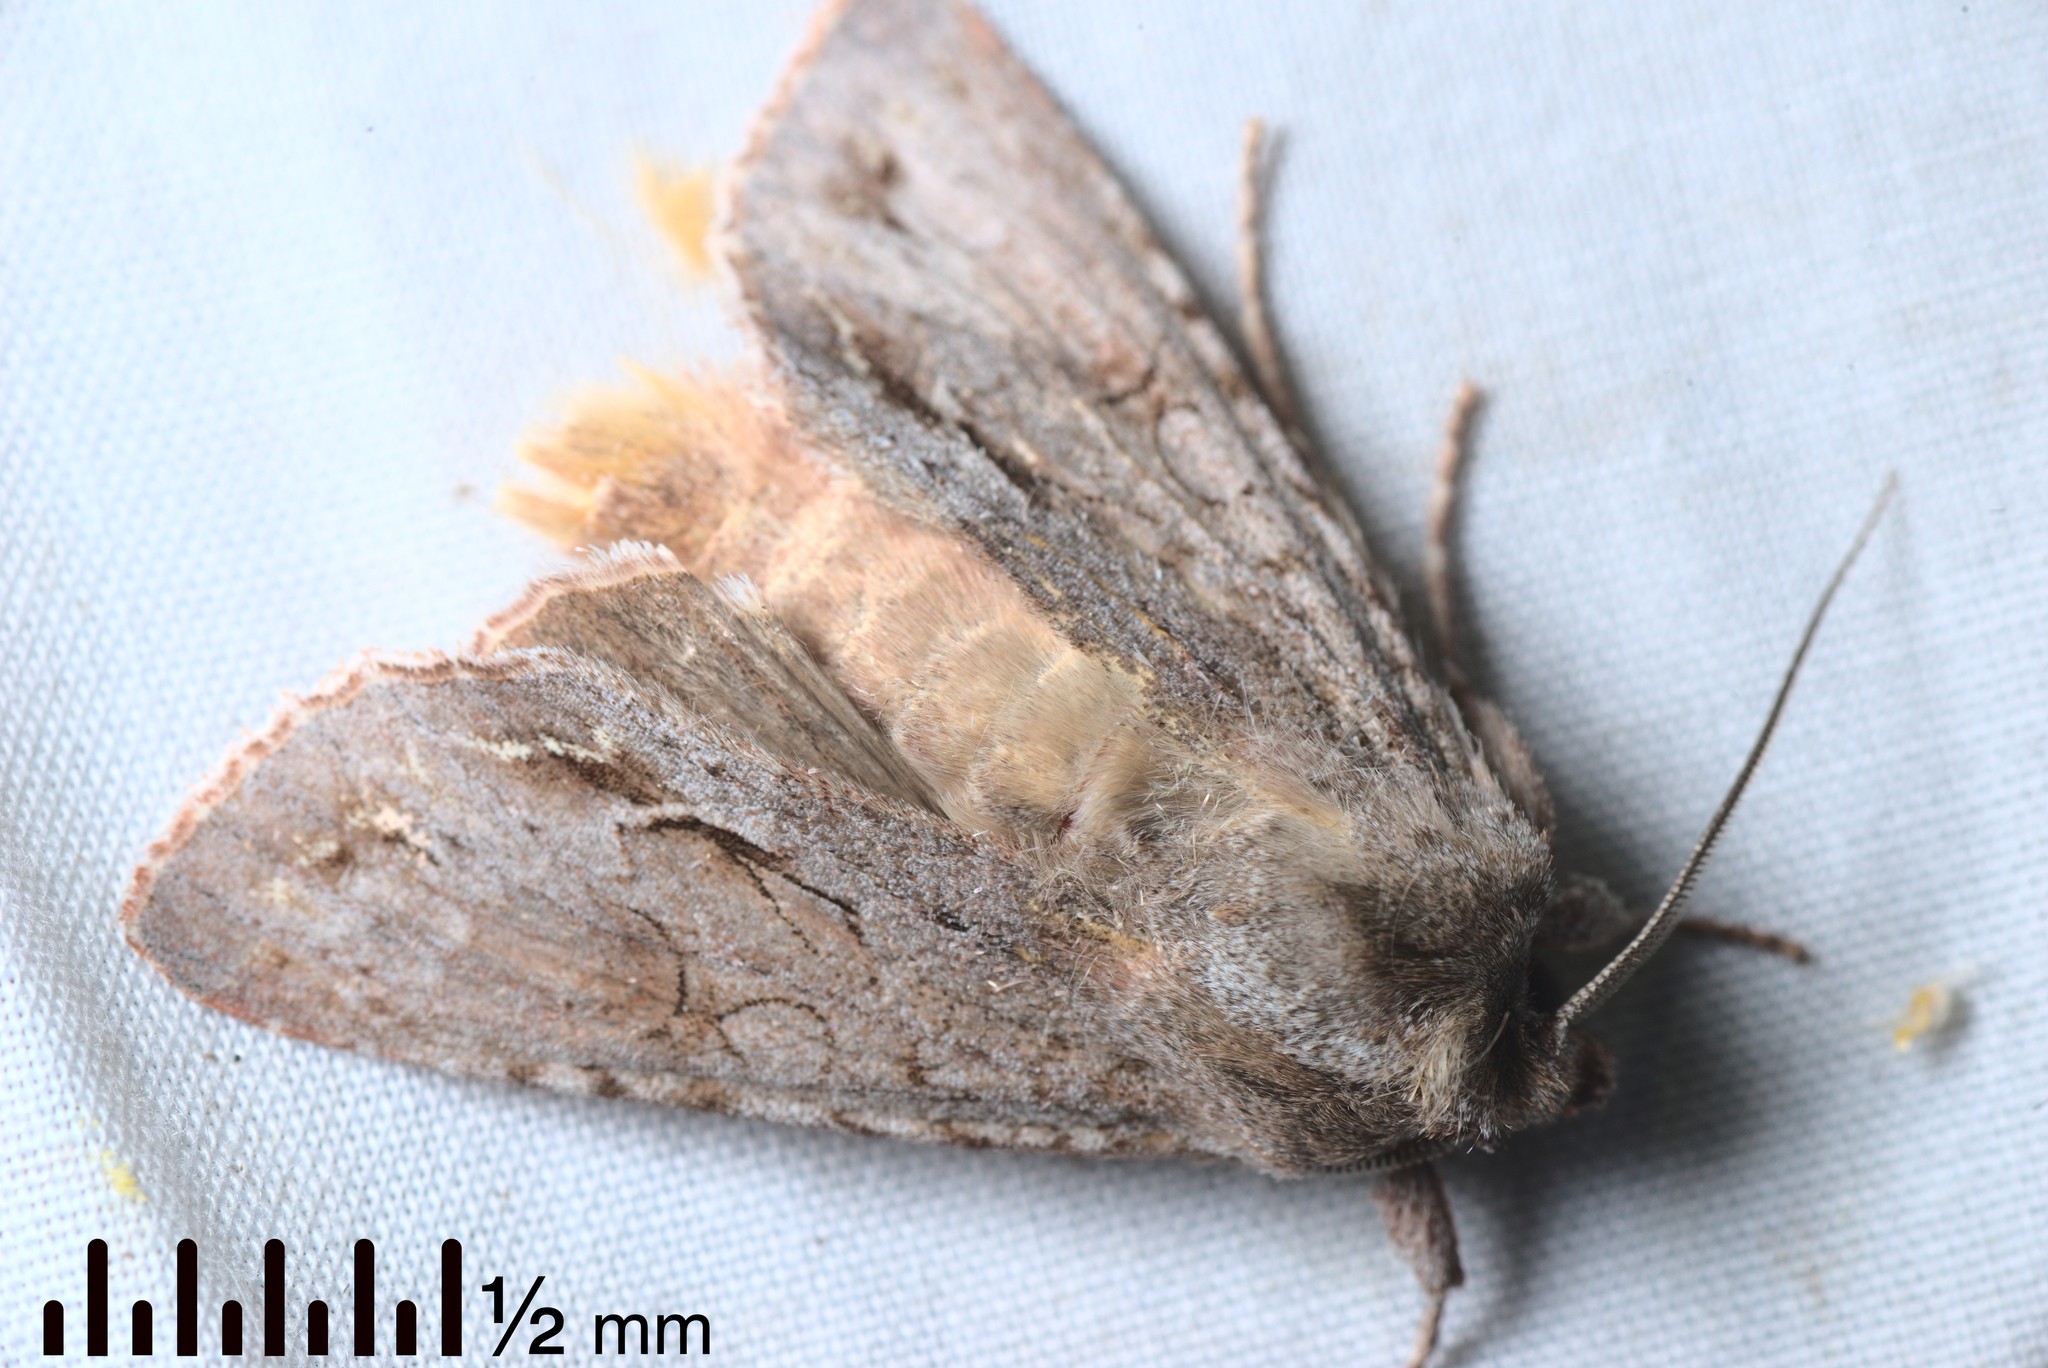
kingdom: Animalia
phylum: Arthropoda
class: Insecta
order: Lepidoptera
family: Noctuidae
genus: Ichneutica
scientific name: Ichneutica
